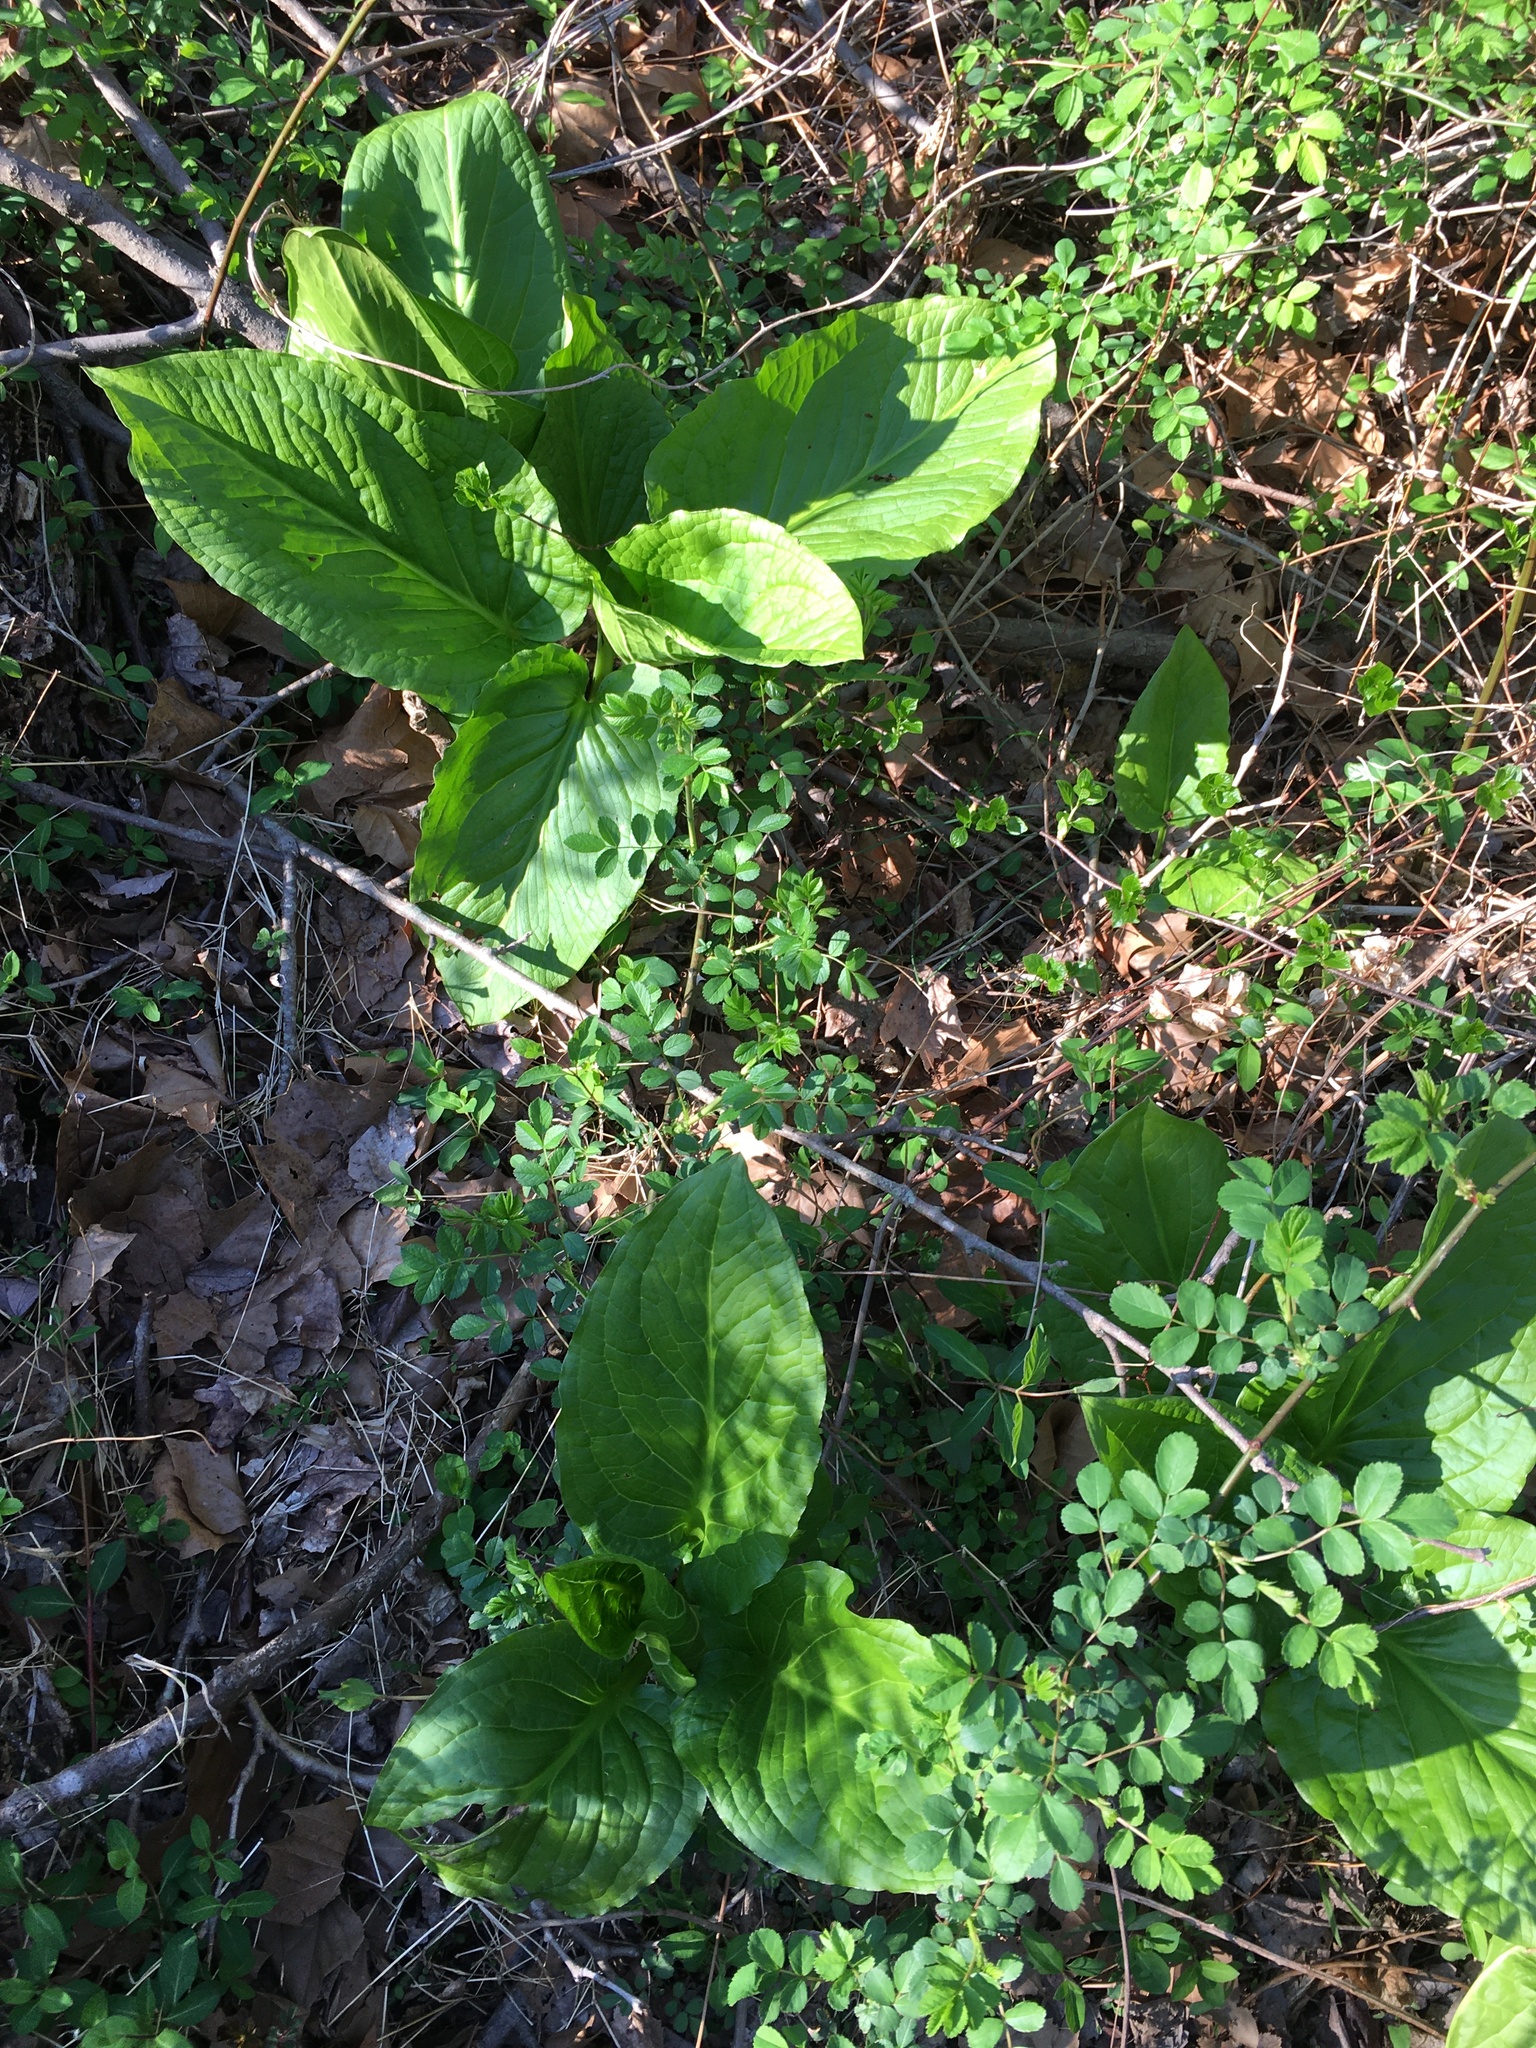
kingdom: Plantae
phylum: Tracheophyta
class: Liliopsida
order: Alismatales
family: Araceae
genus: Symplocarpus
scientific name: Symplocarpus foetidus
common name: Eastern skunk cabbage
